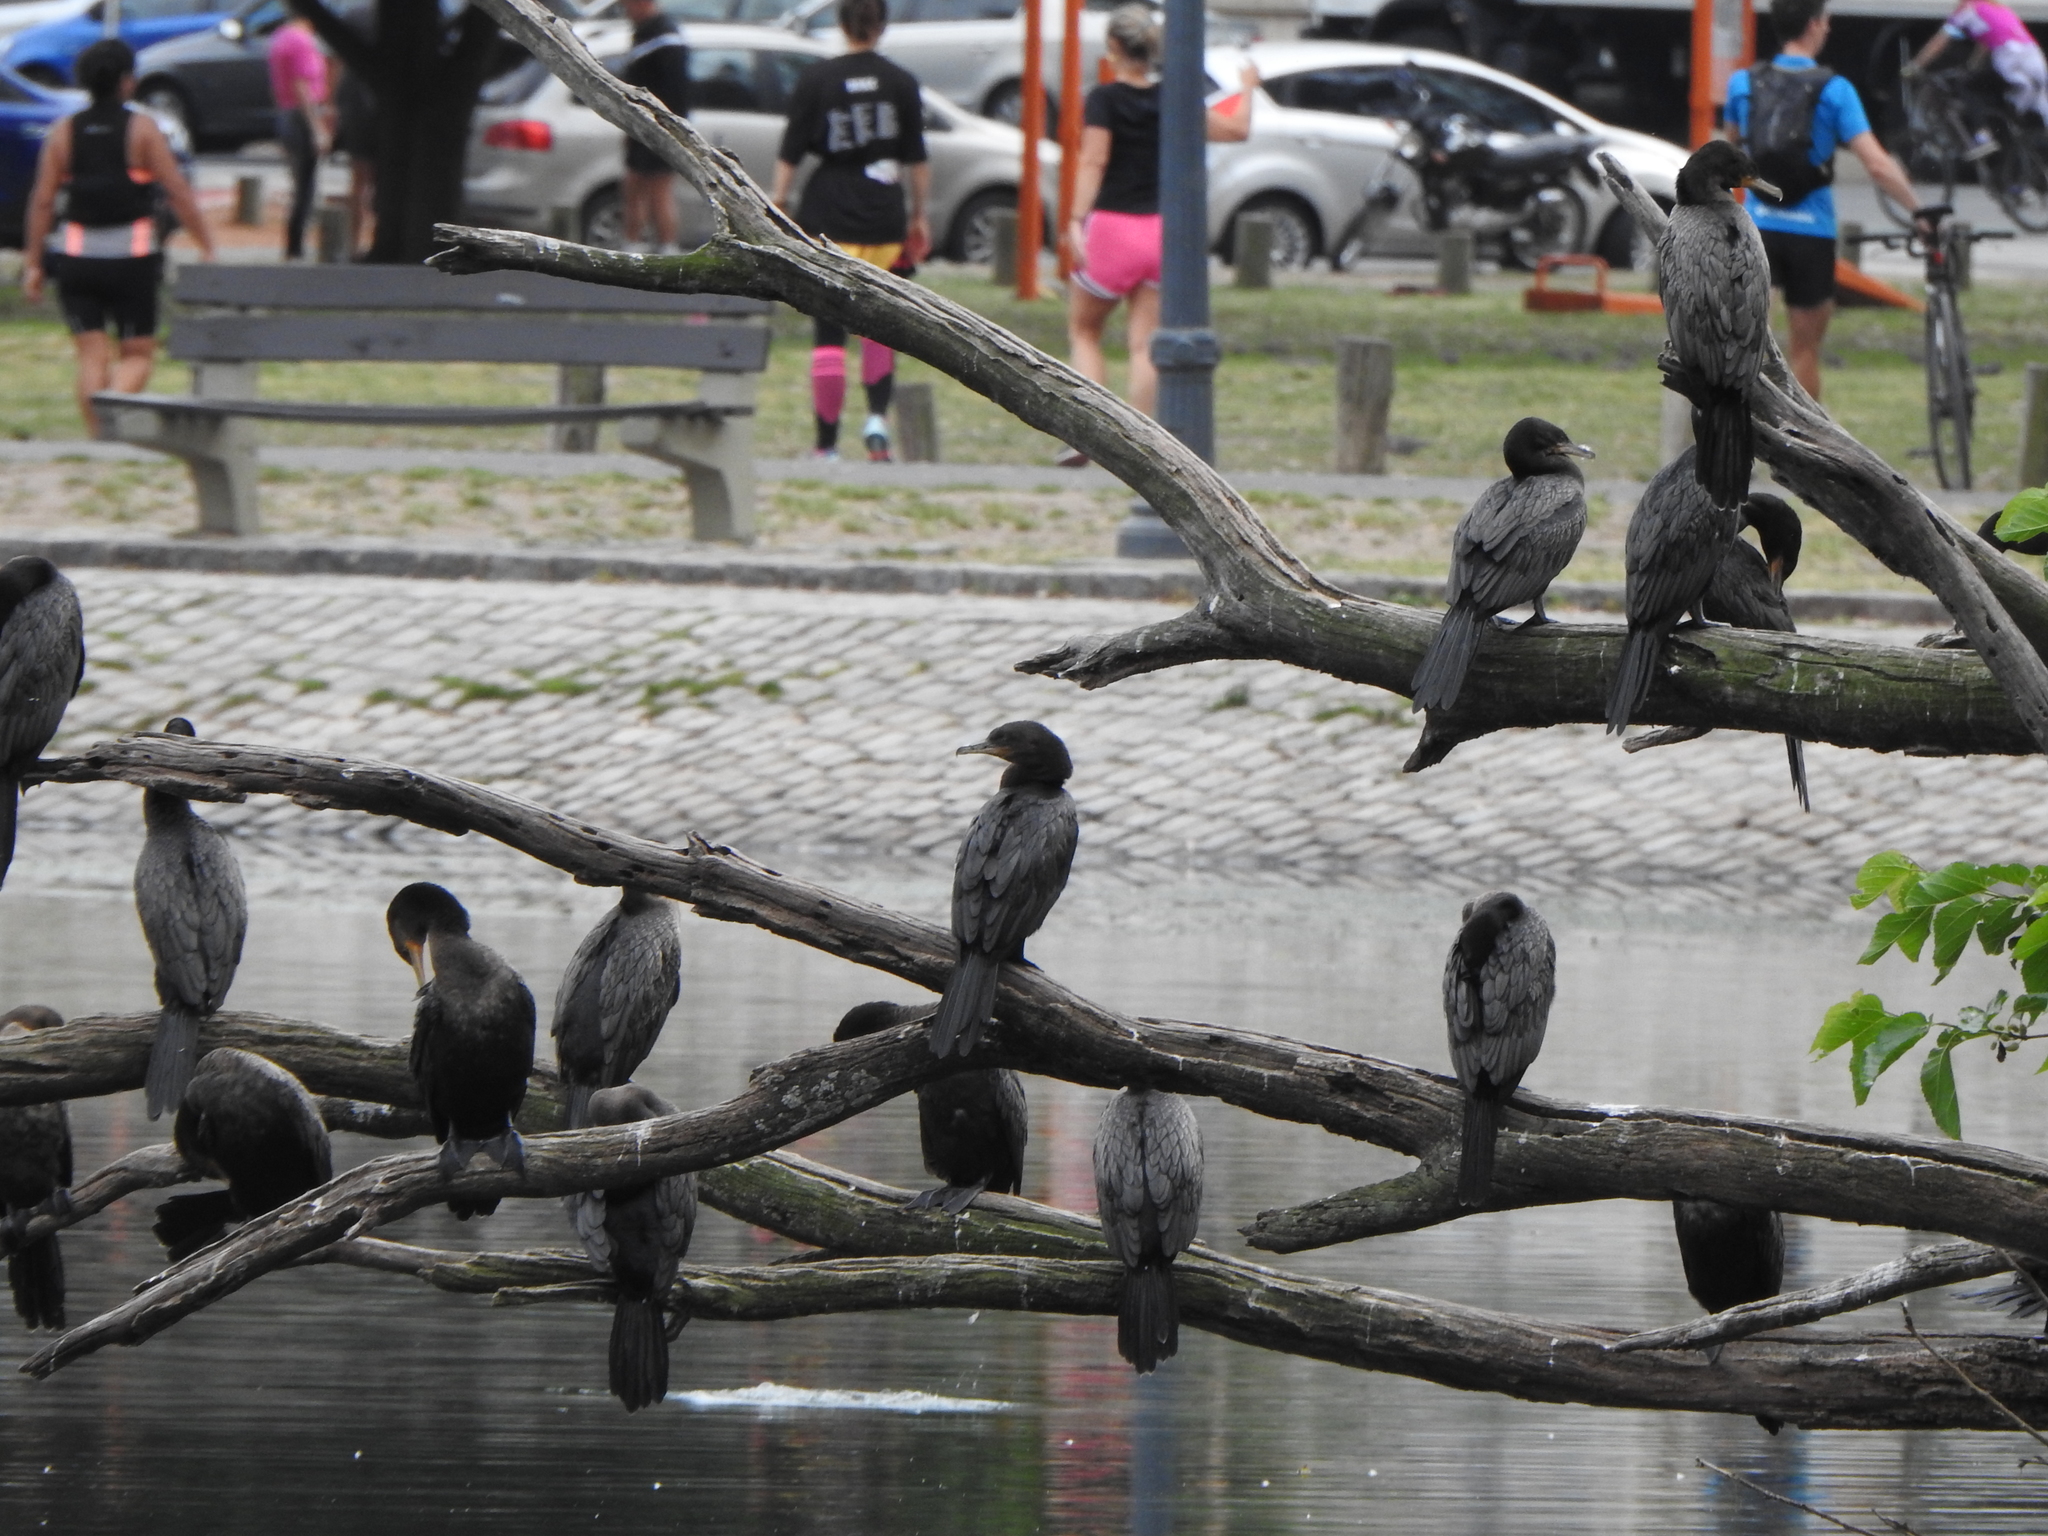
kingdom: Animalia
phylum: Chordata
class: Aves
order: Suliformes
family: Phalacrocoracidae
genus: Phalacrocorax
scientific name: Phalacrocorax brasilianus
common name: Neotropic cormorant
